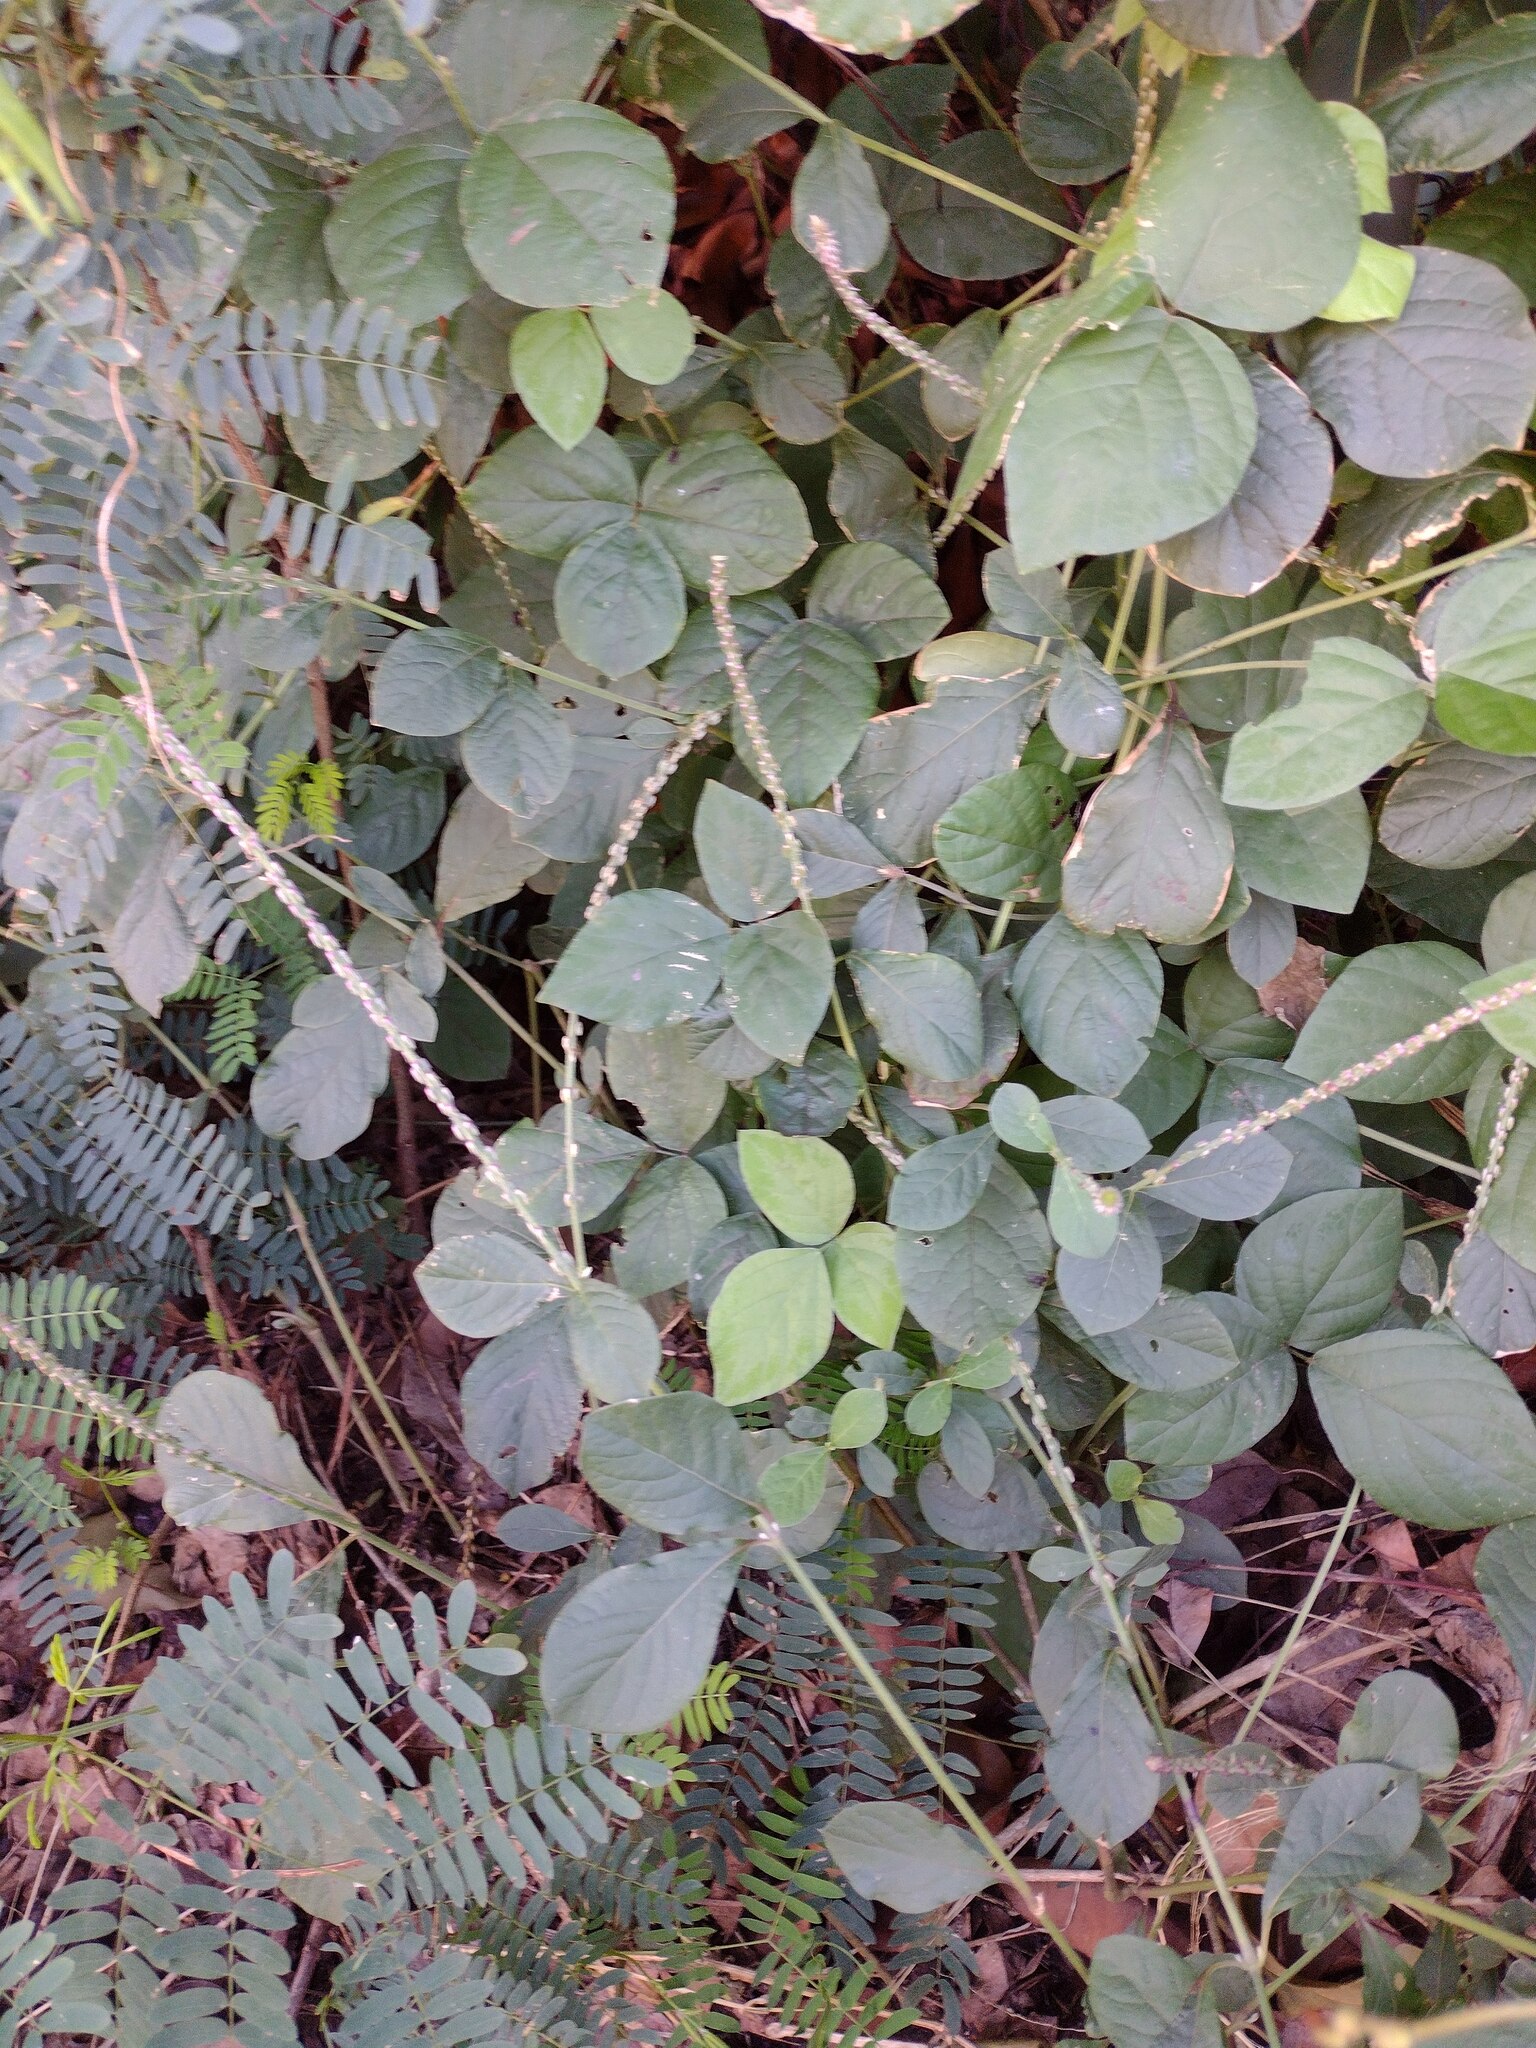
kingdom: Plantae
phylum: Tracheophyta
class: Magnoliopsida
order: Caryophyllales
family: Amaranthaceae
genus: Achyranthes
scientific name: Achyranthes aspera
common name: Devil's horsewhip
